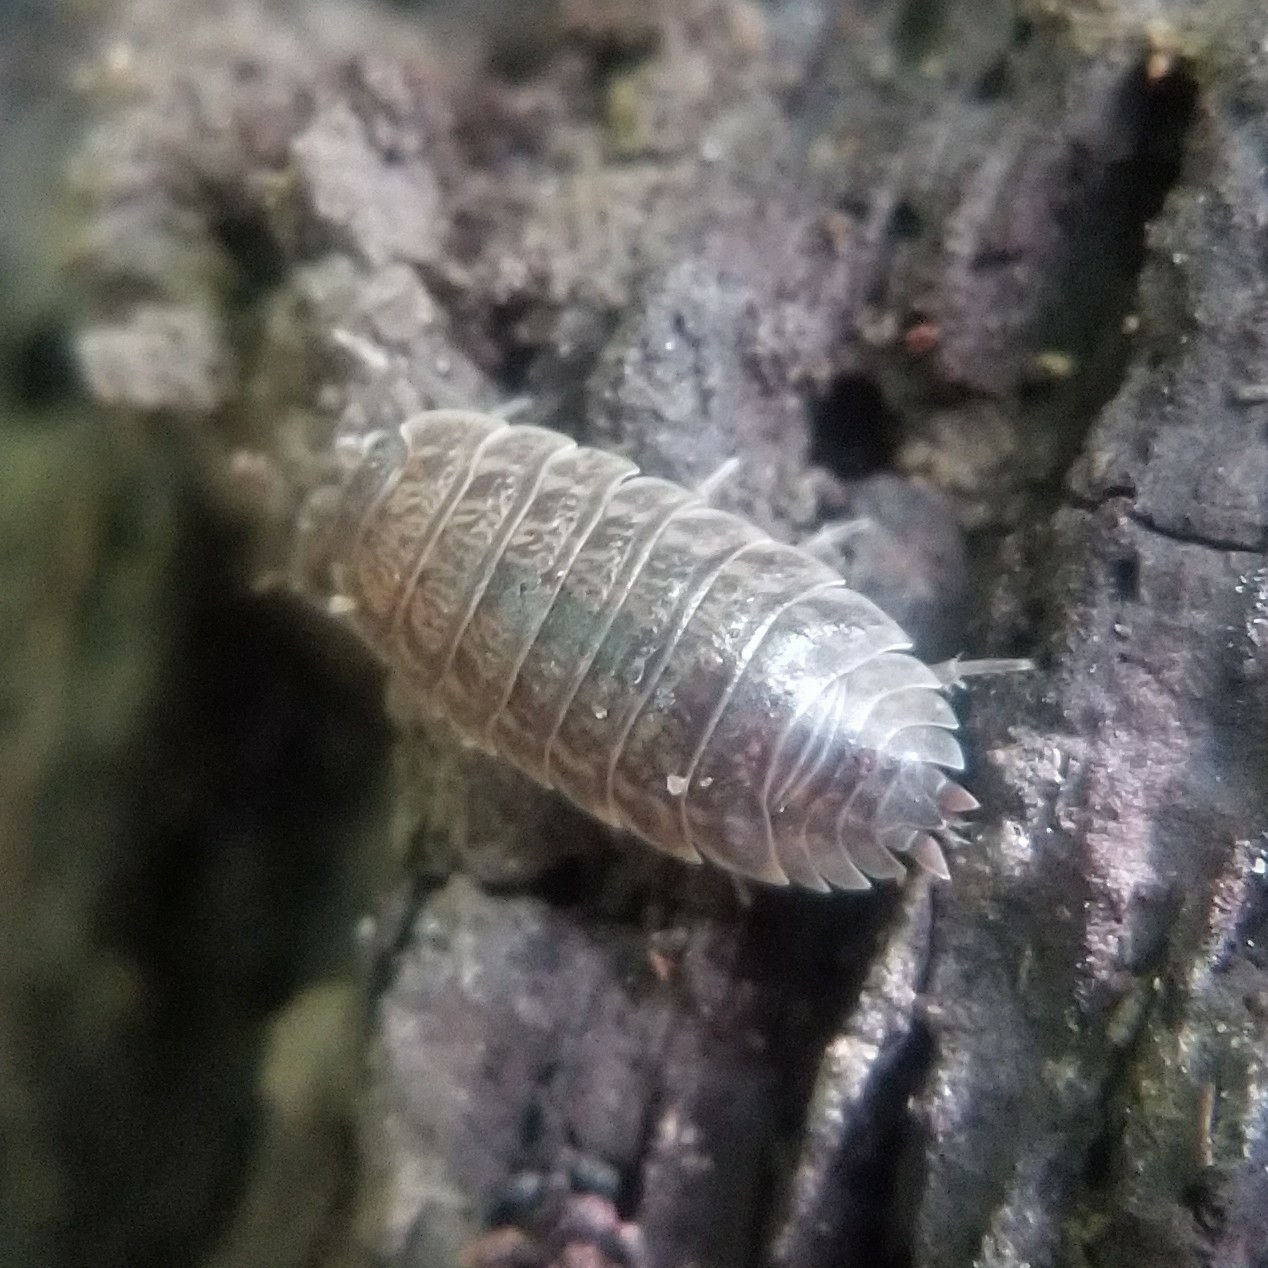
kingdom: Animalia
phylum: Arthropoda
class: Malacostraca
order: Isopoda
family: Trachelipodidae
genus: Trachelipus
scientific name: Trachelipus rathkii
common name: Isopod
